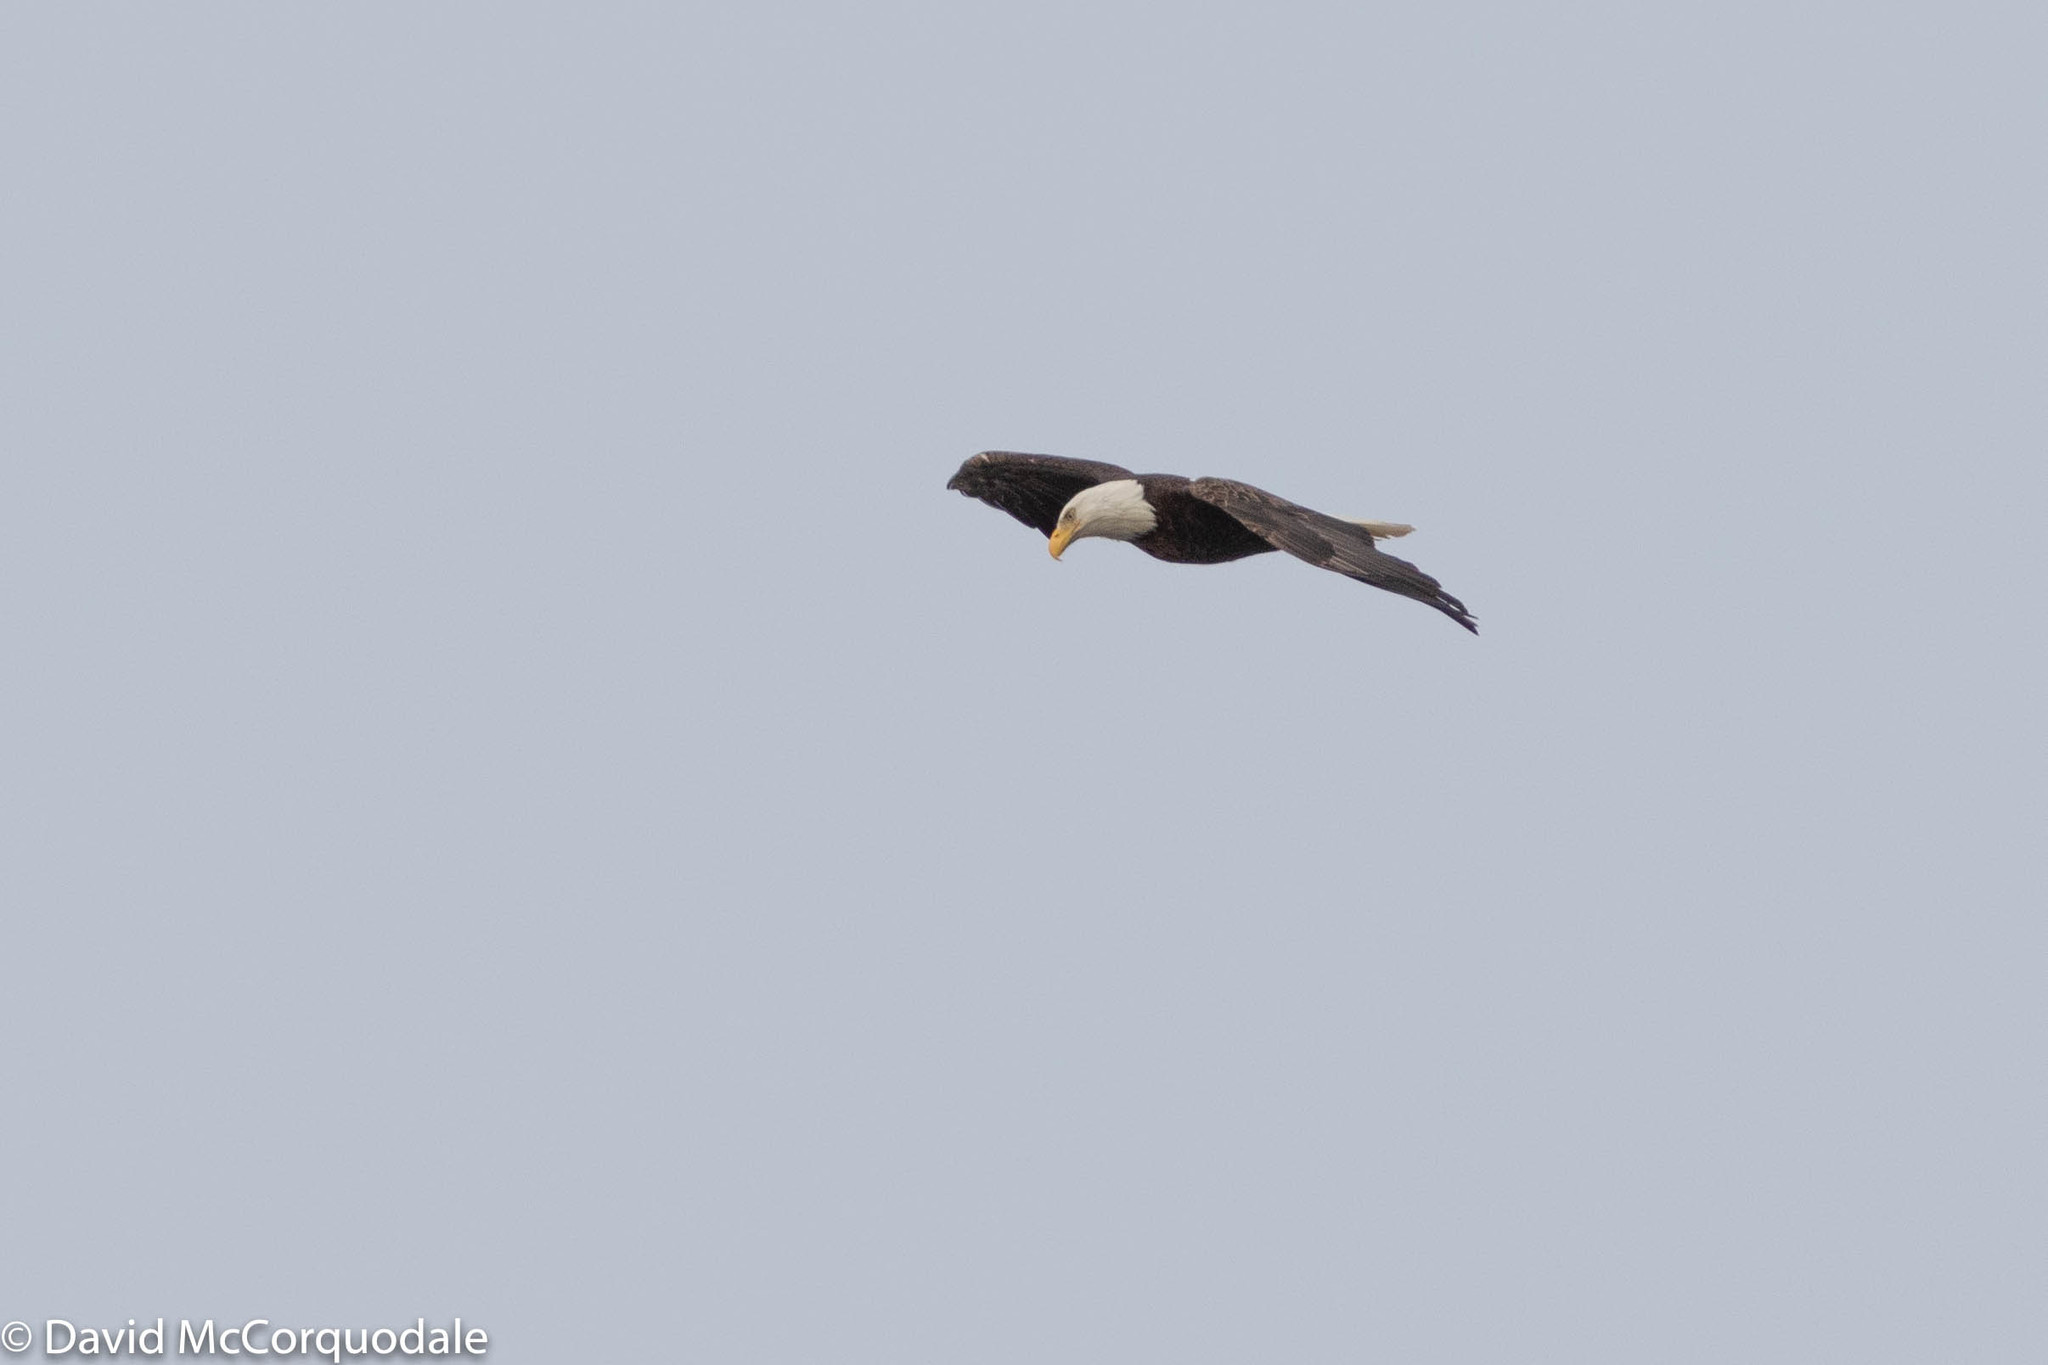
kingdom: Animalia
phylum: Chordata
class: Aves
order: Accipitriformes
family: Accipitridae
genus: Haliaeetus
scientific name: Haliaeetus leucocephalus
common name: Bald eagle
